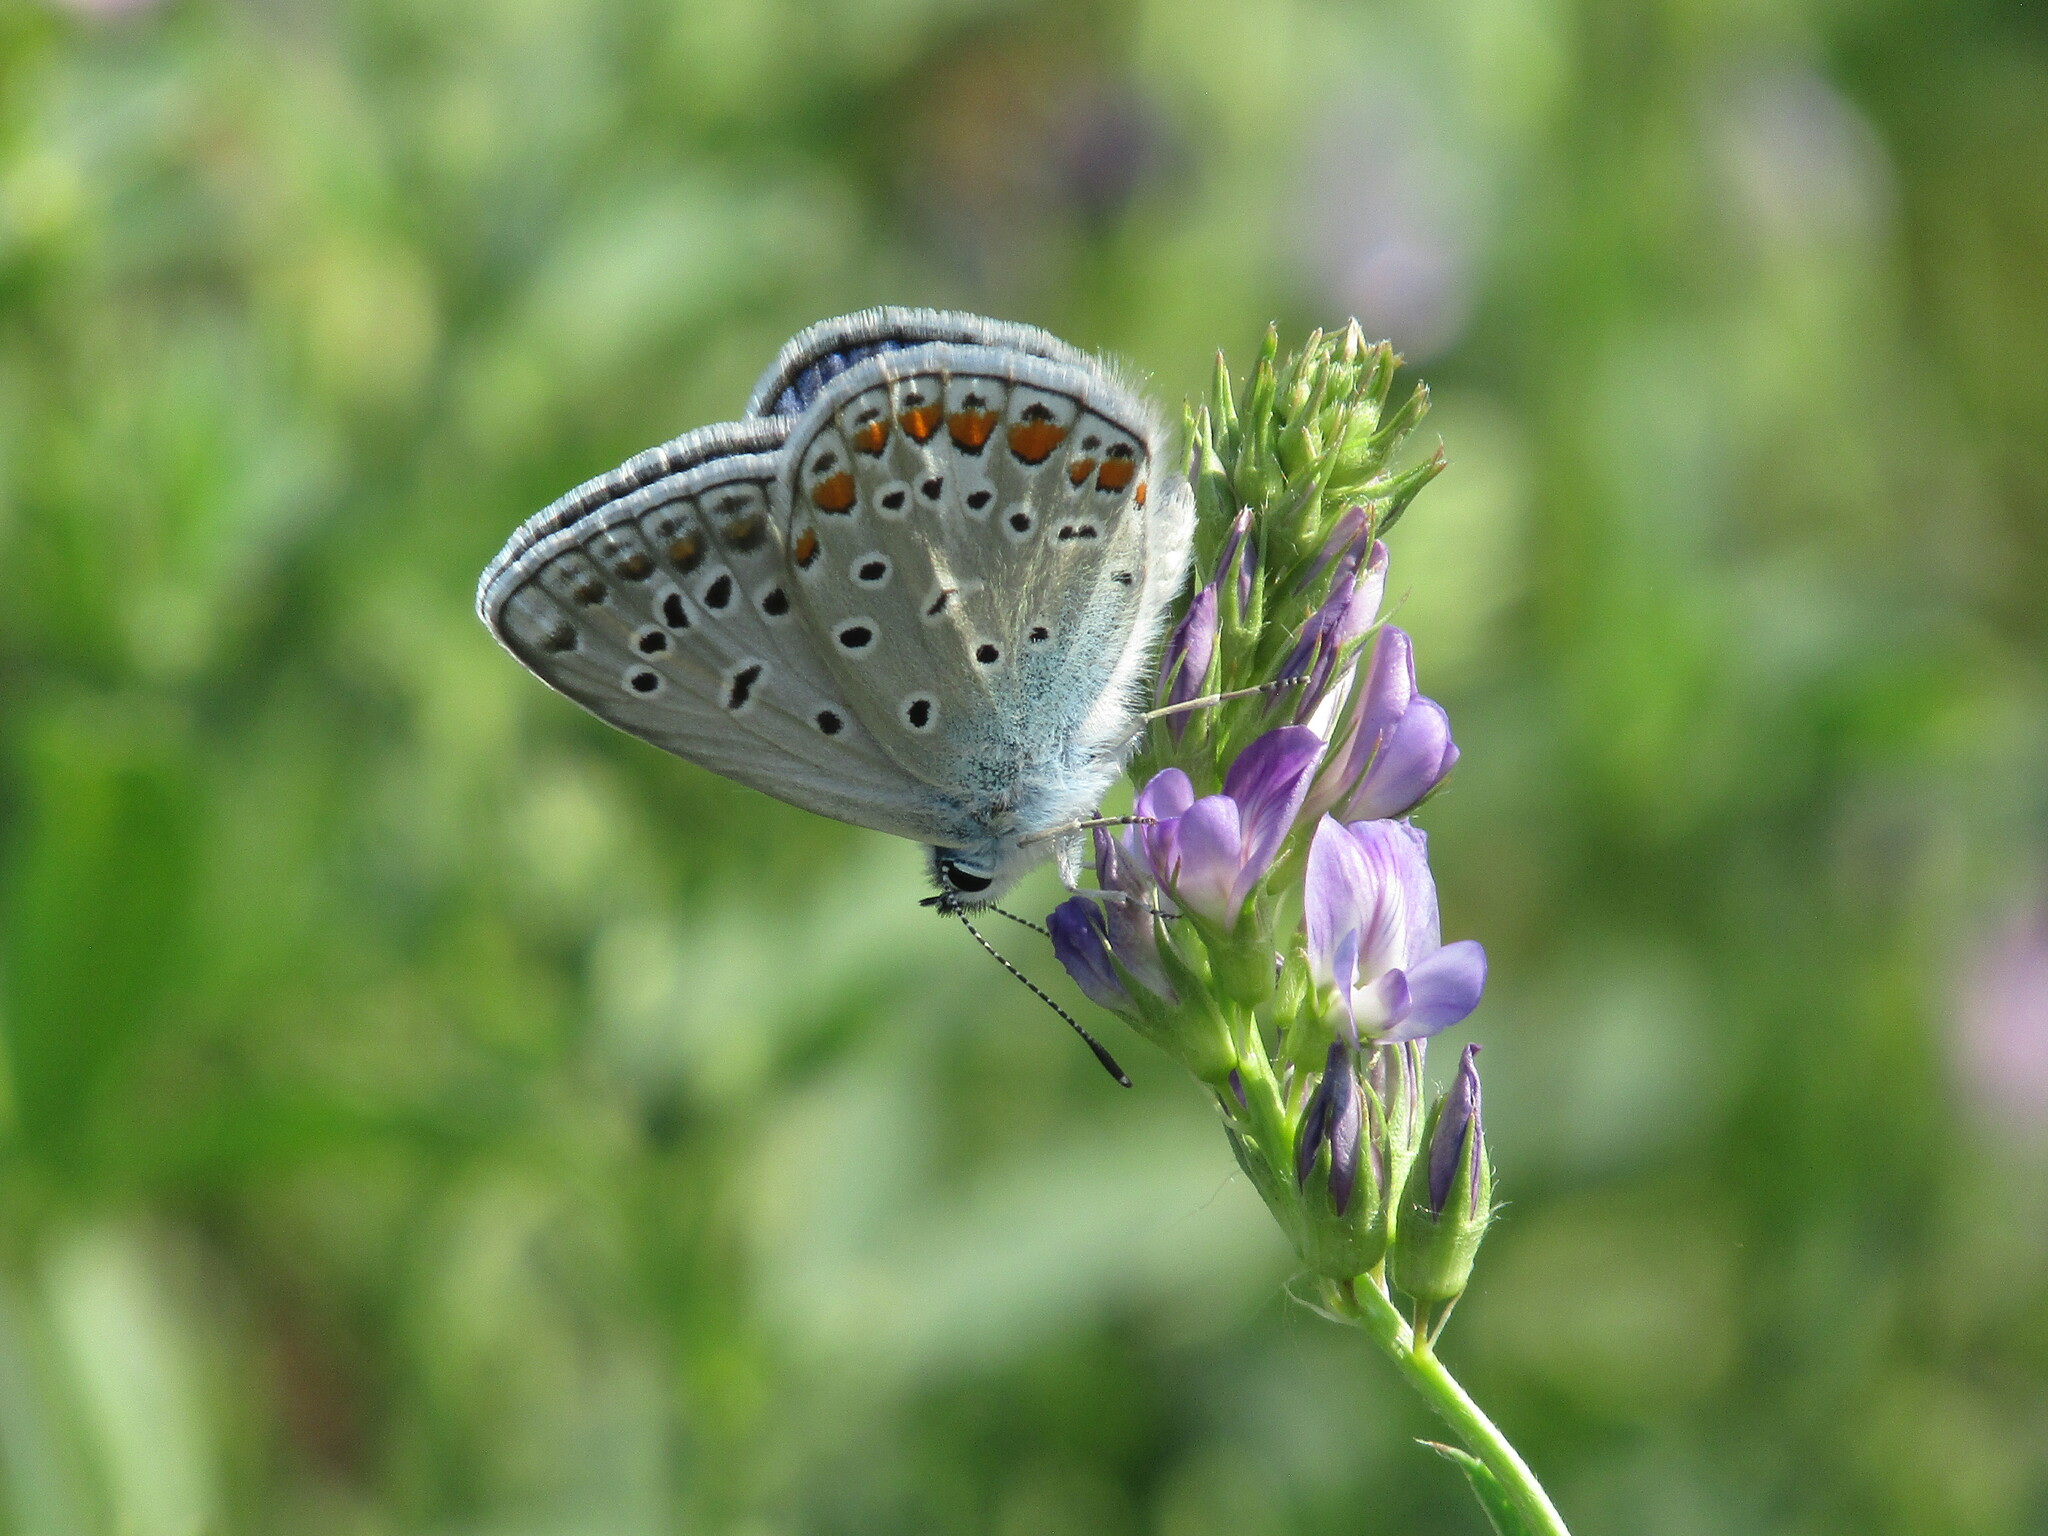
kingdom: Animalia
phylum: Arthropoda
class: Insecta
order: Lepidoptera
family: Lycaenidae
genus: Polyommatus
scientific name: Polyommatus icarus
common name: Common blue
